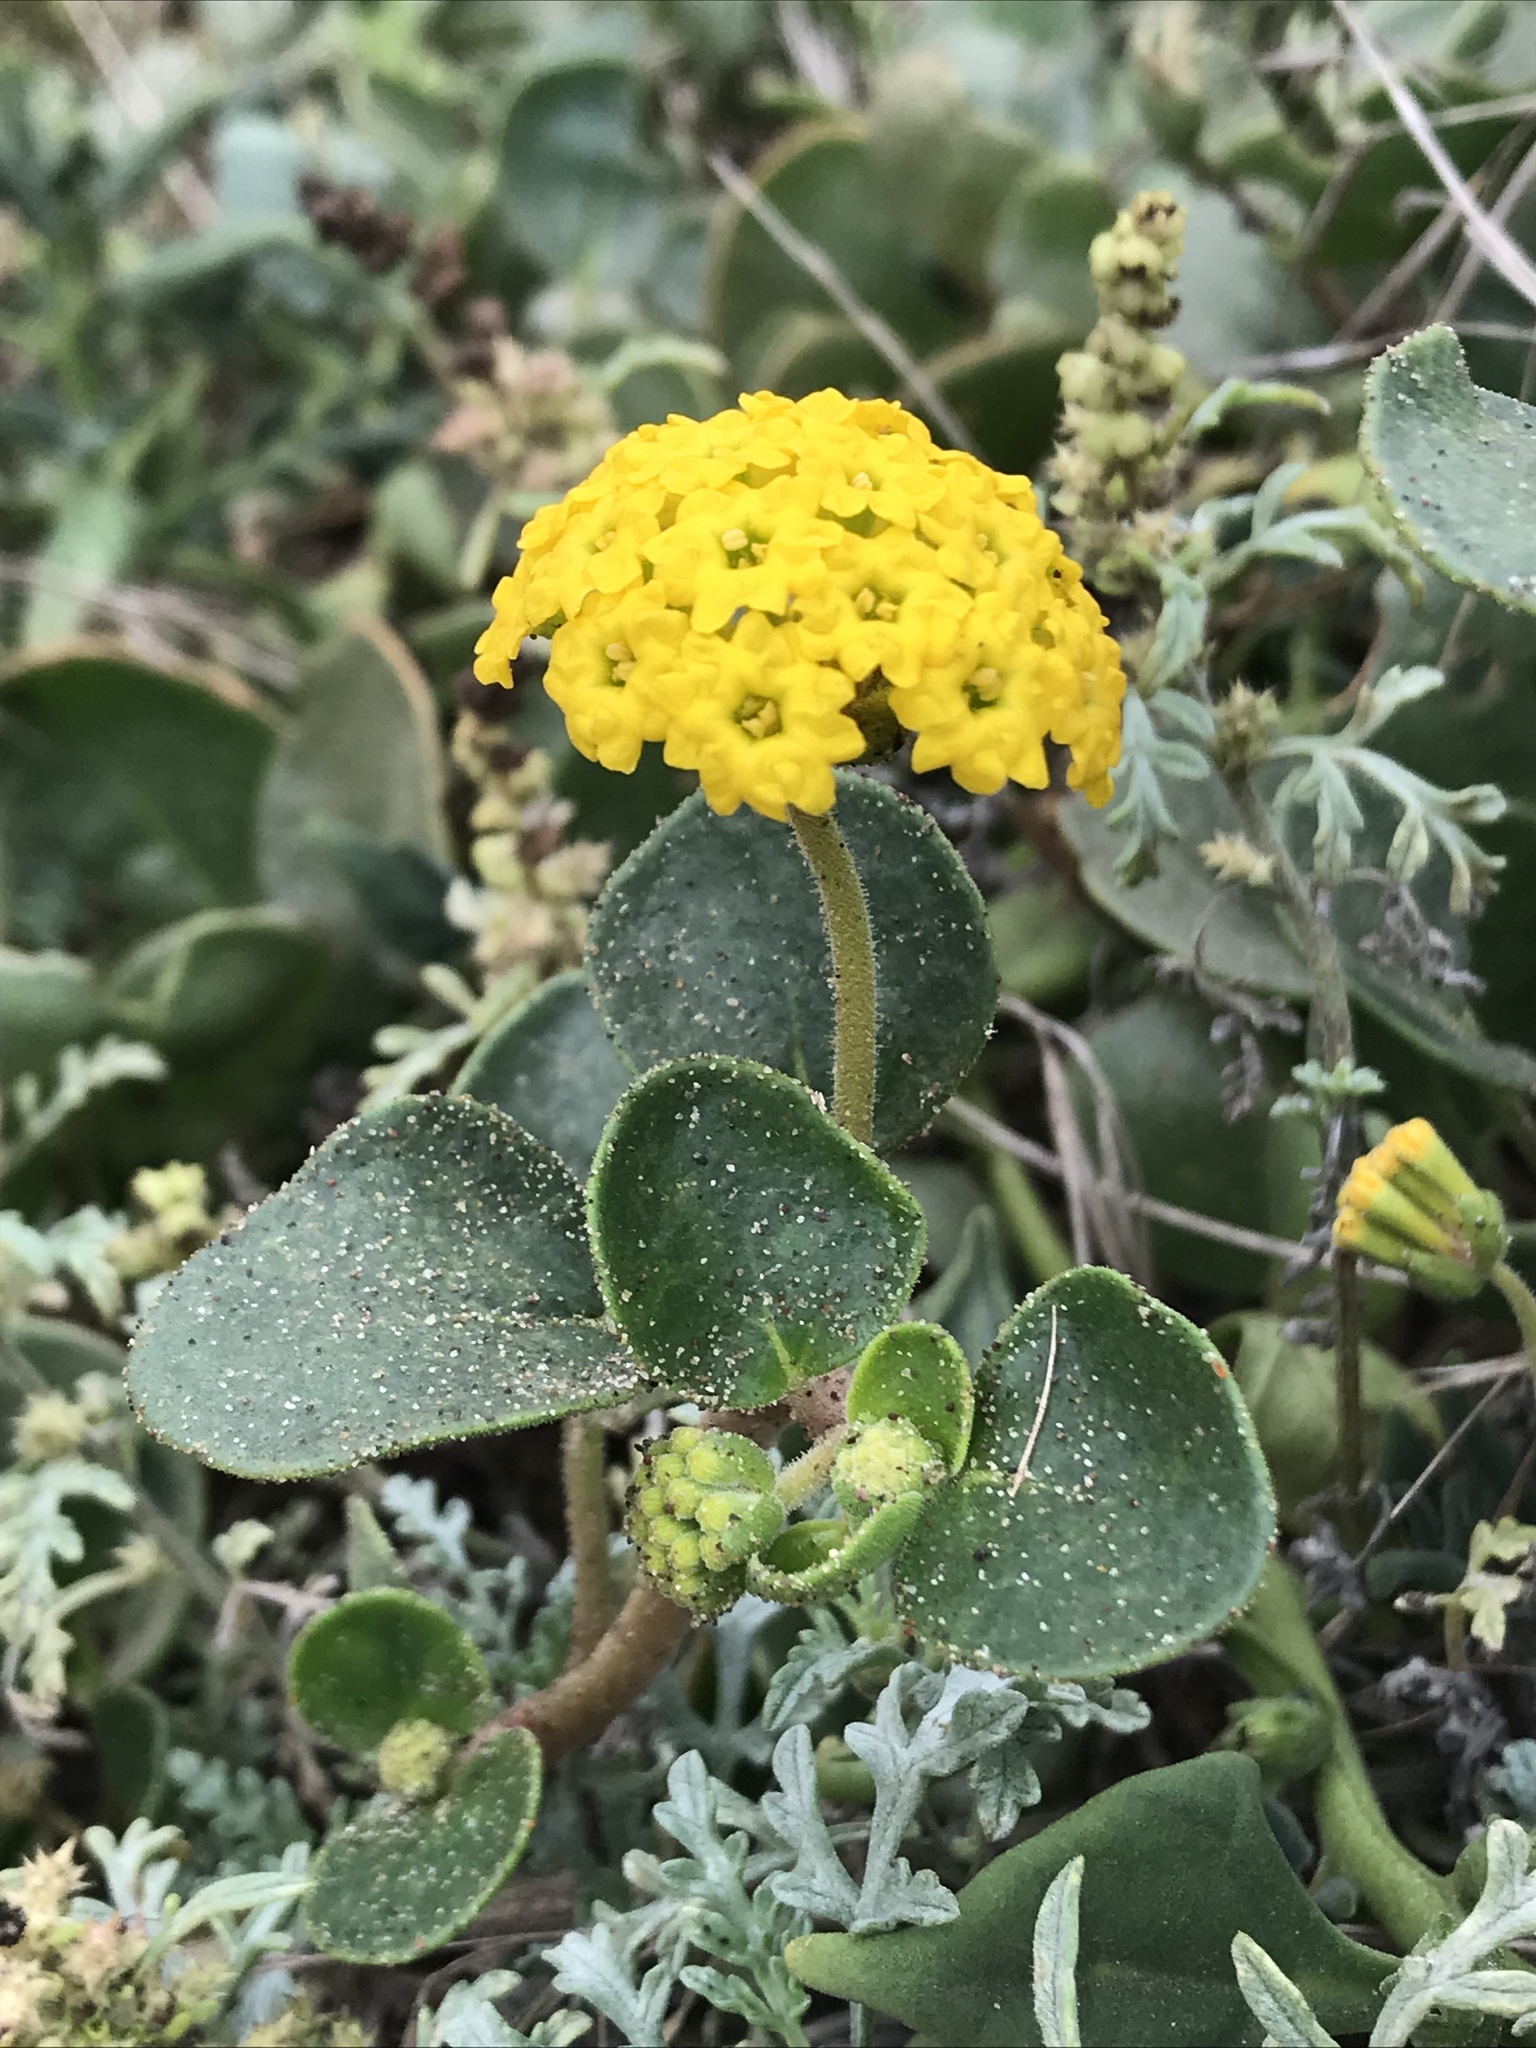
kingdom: Plantae
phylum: Tracheophyta
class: Magnoliopsida
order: Caryophyllales
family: Nyctaginaceae
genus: Abronia
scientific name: Abronia latifolia
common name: Yellow sand-verbena
